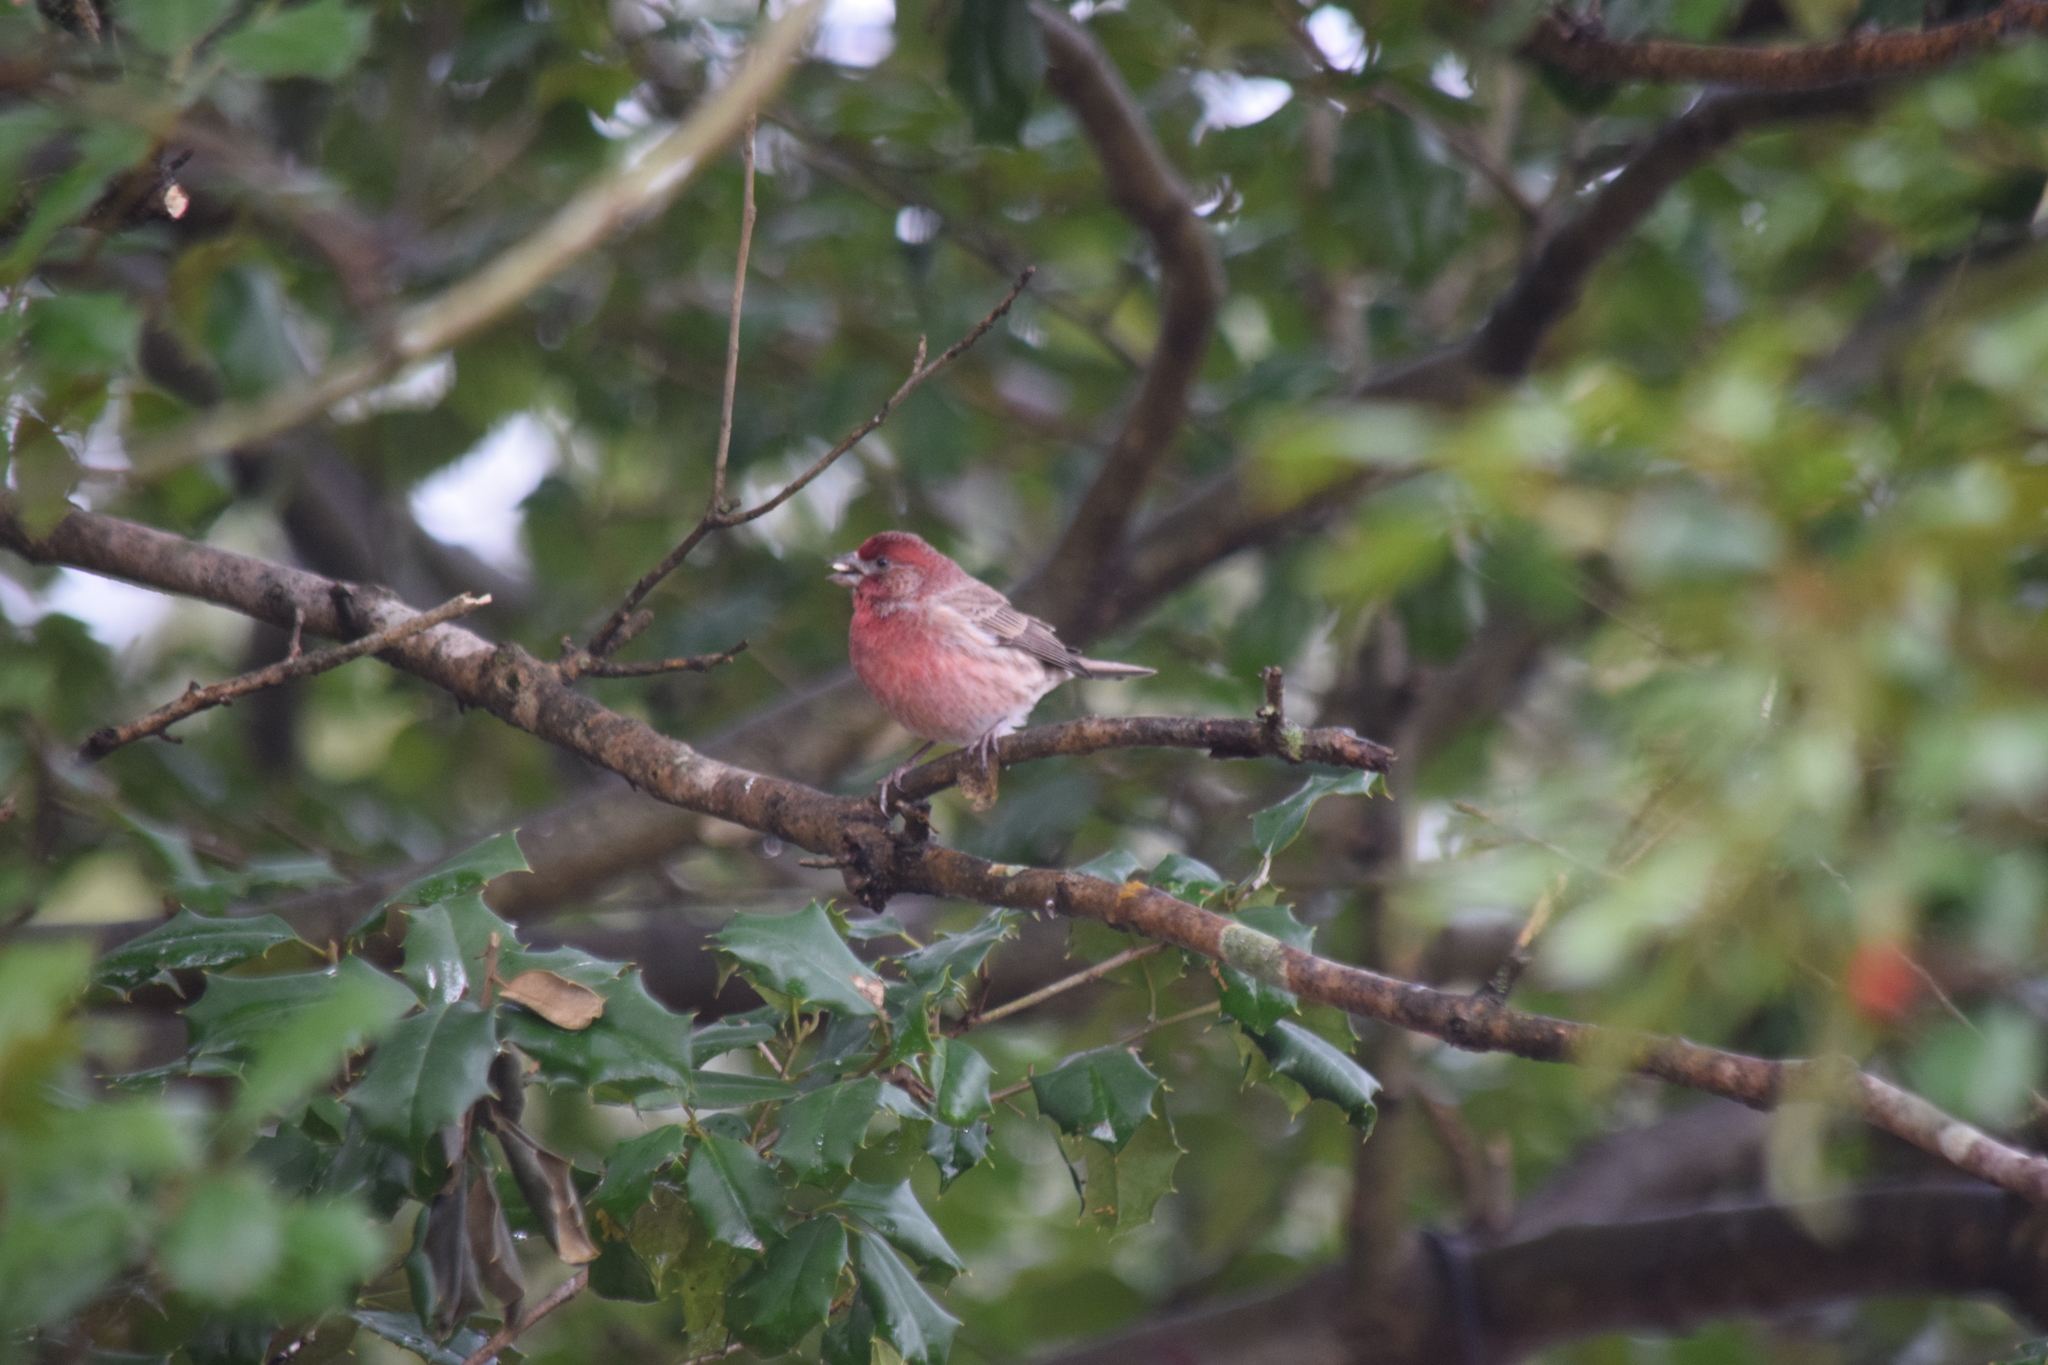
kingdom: Animalia
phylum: Chordata
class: Aves
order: Passeriformes
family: Fringillidae
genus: Haemorhous
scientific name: Haemorhous mexicanus
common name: House finch
